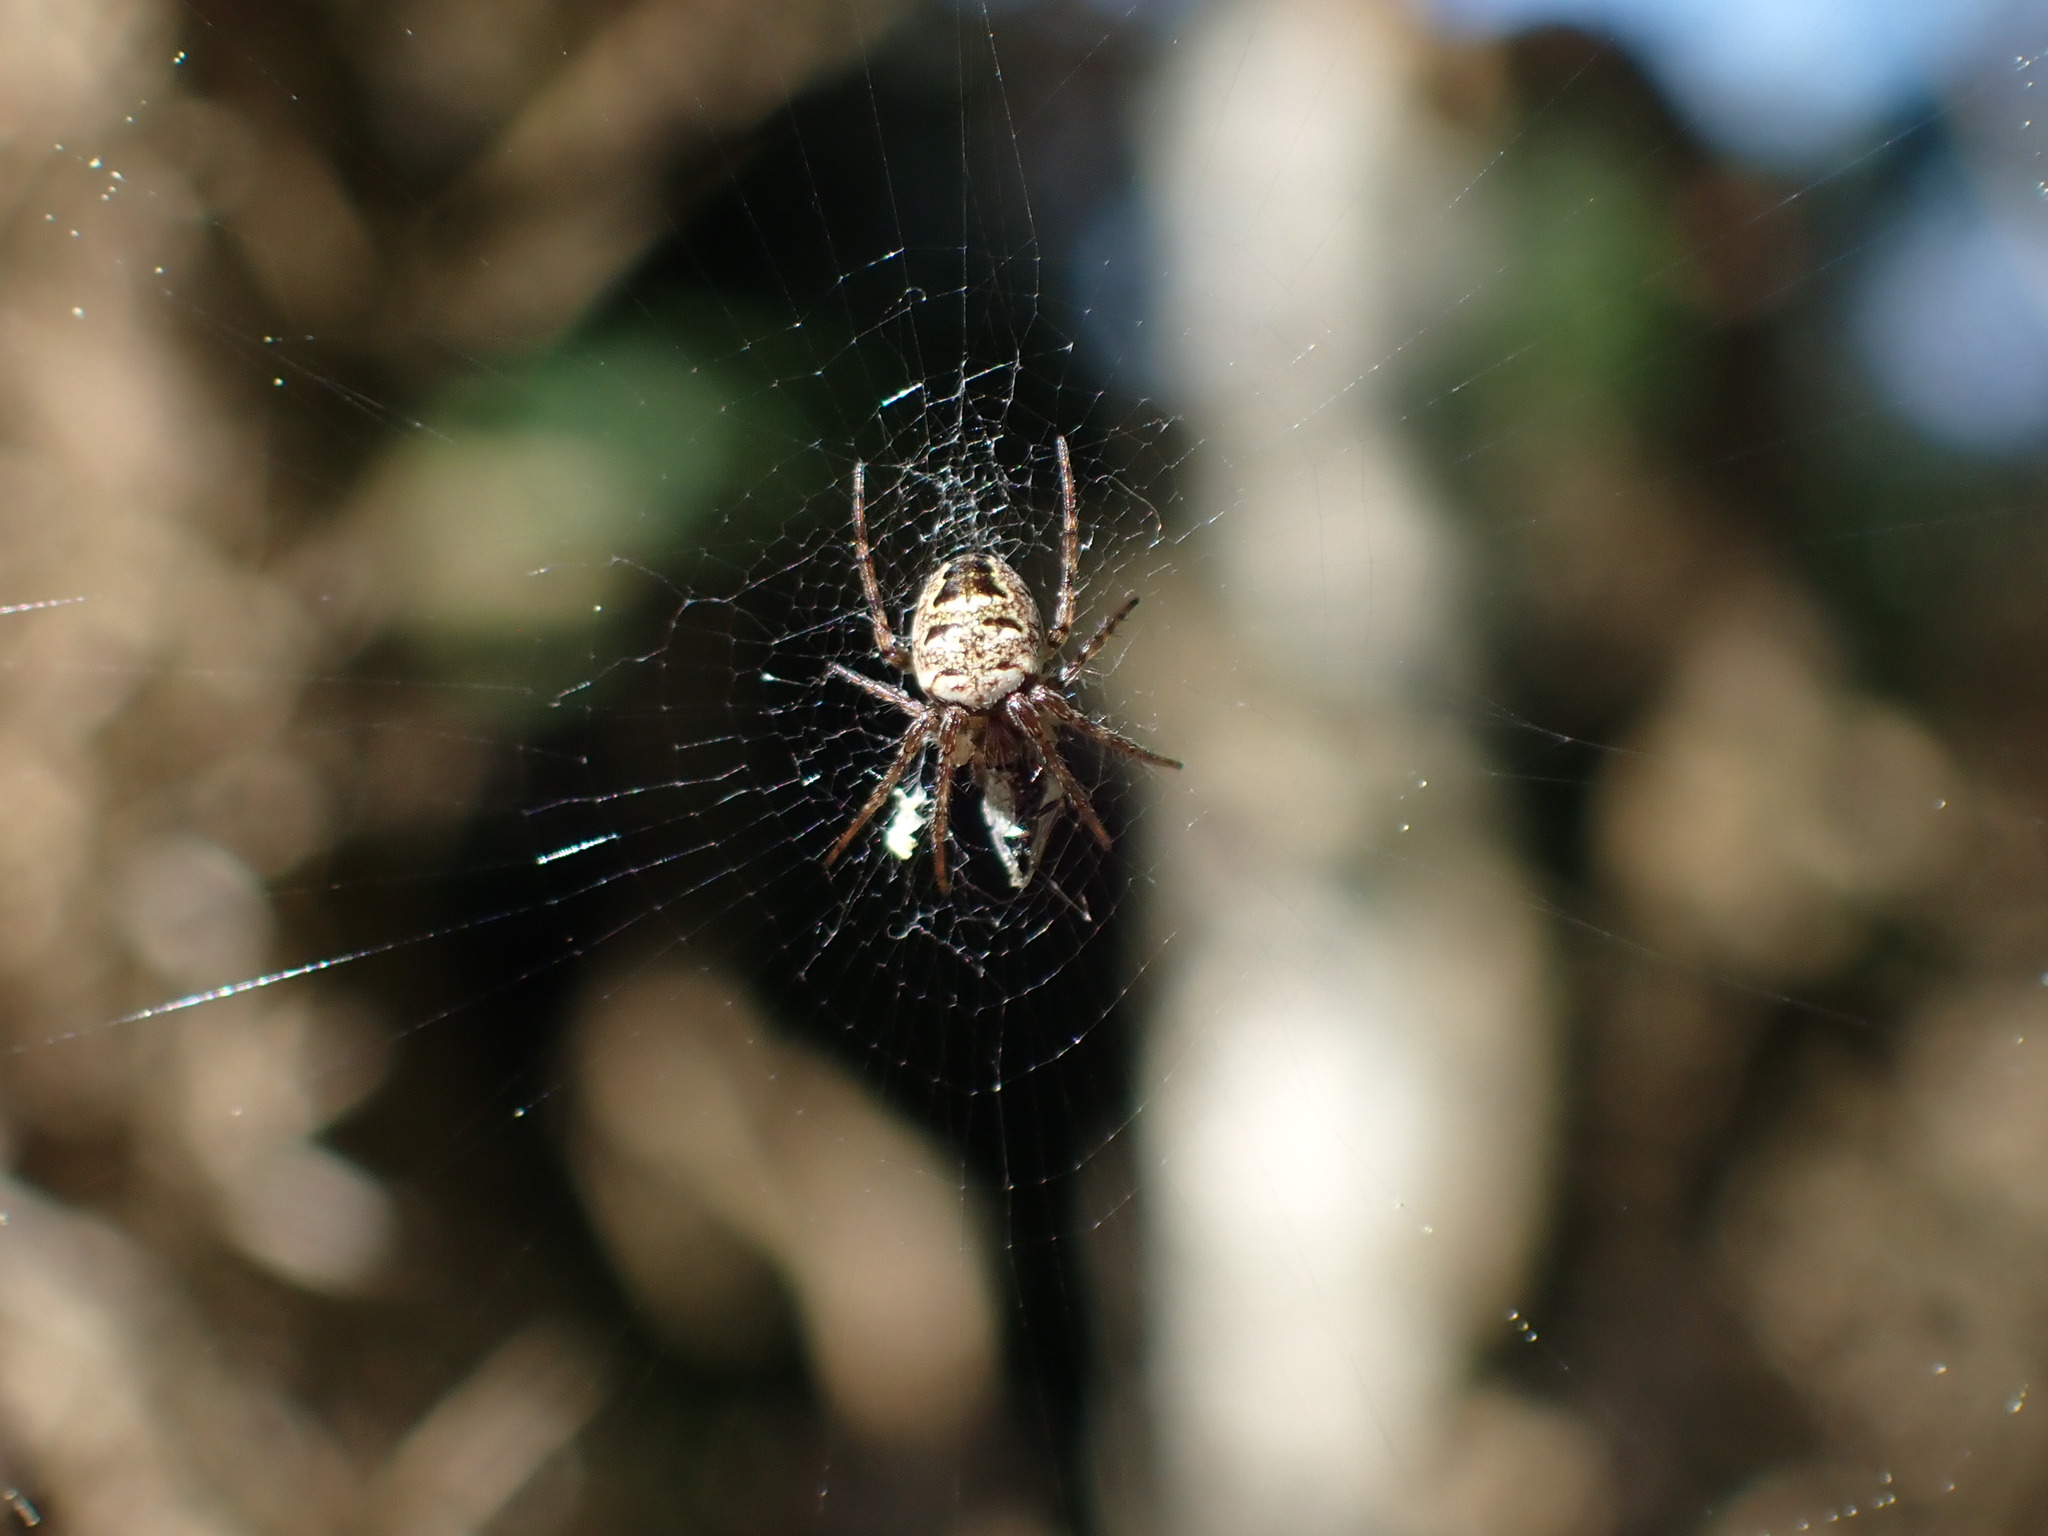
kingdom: Animalia
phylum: Arthropoda
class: Arachnida
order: Araneae
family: Araneidae
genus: Zilla
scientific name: Zilla diodia
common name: Zilla diodia
